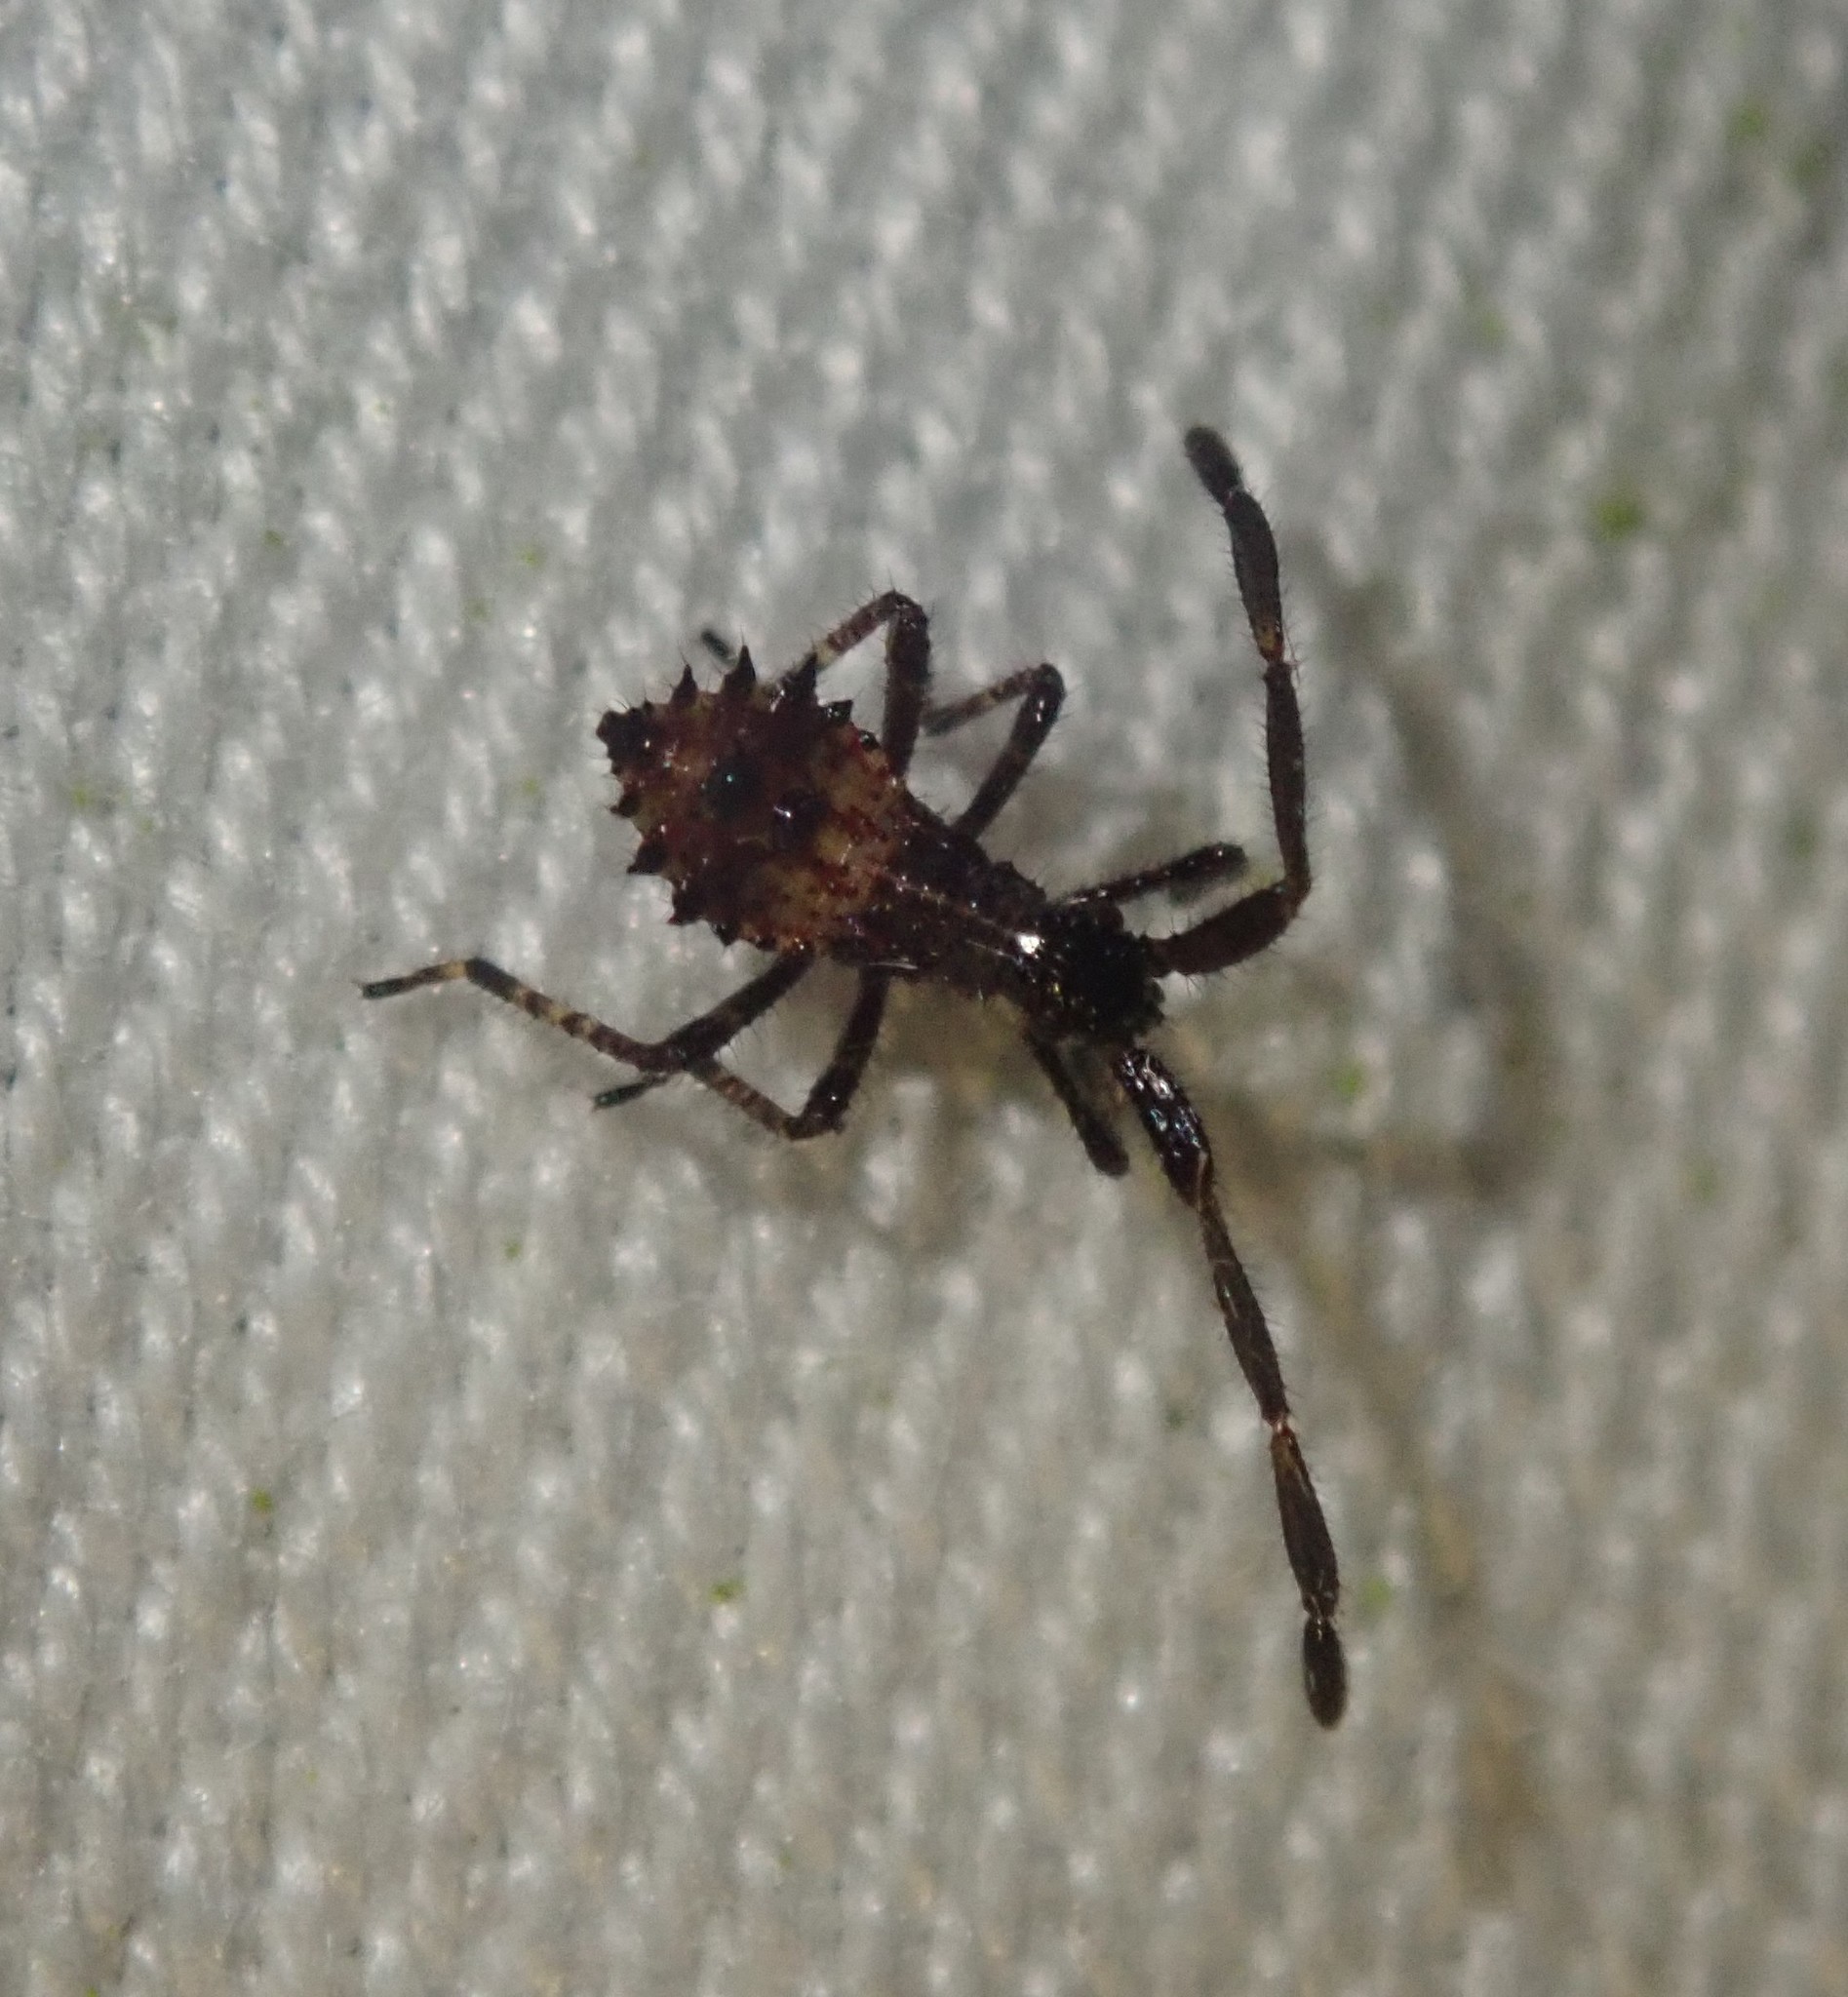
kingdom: Animalia
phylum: Arthropoda
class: Insecta
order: Hemiptera
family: Coreidae
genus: Coreus
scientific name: Coreus marginatus
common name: Dock bug
